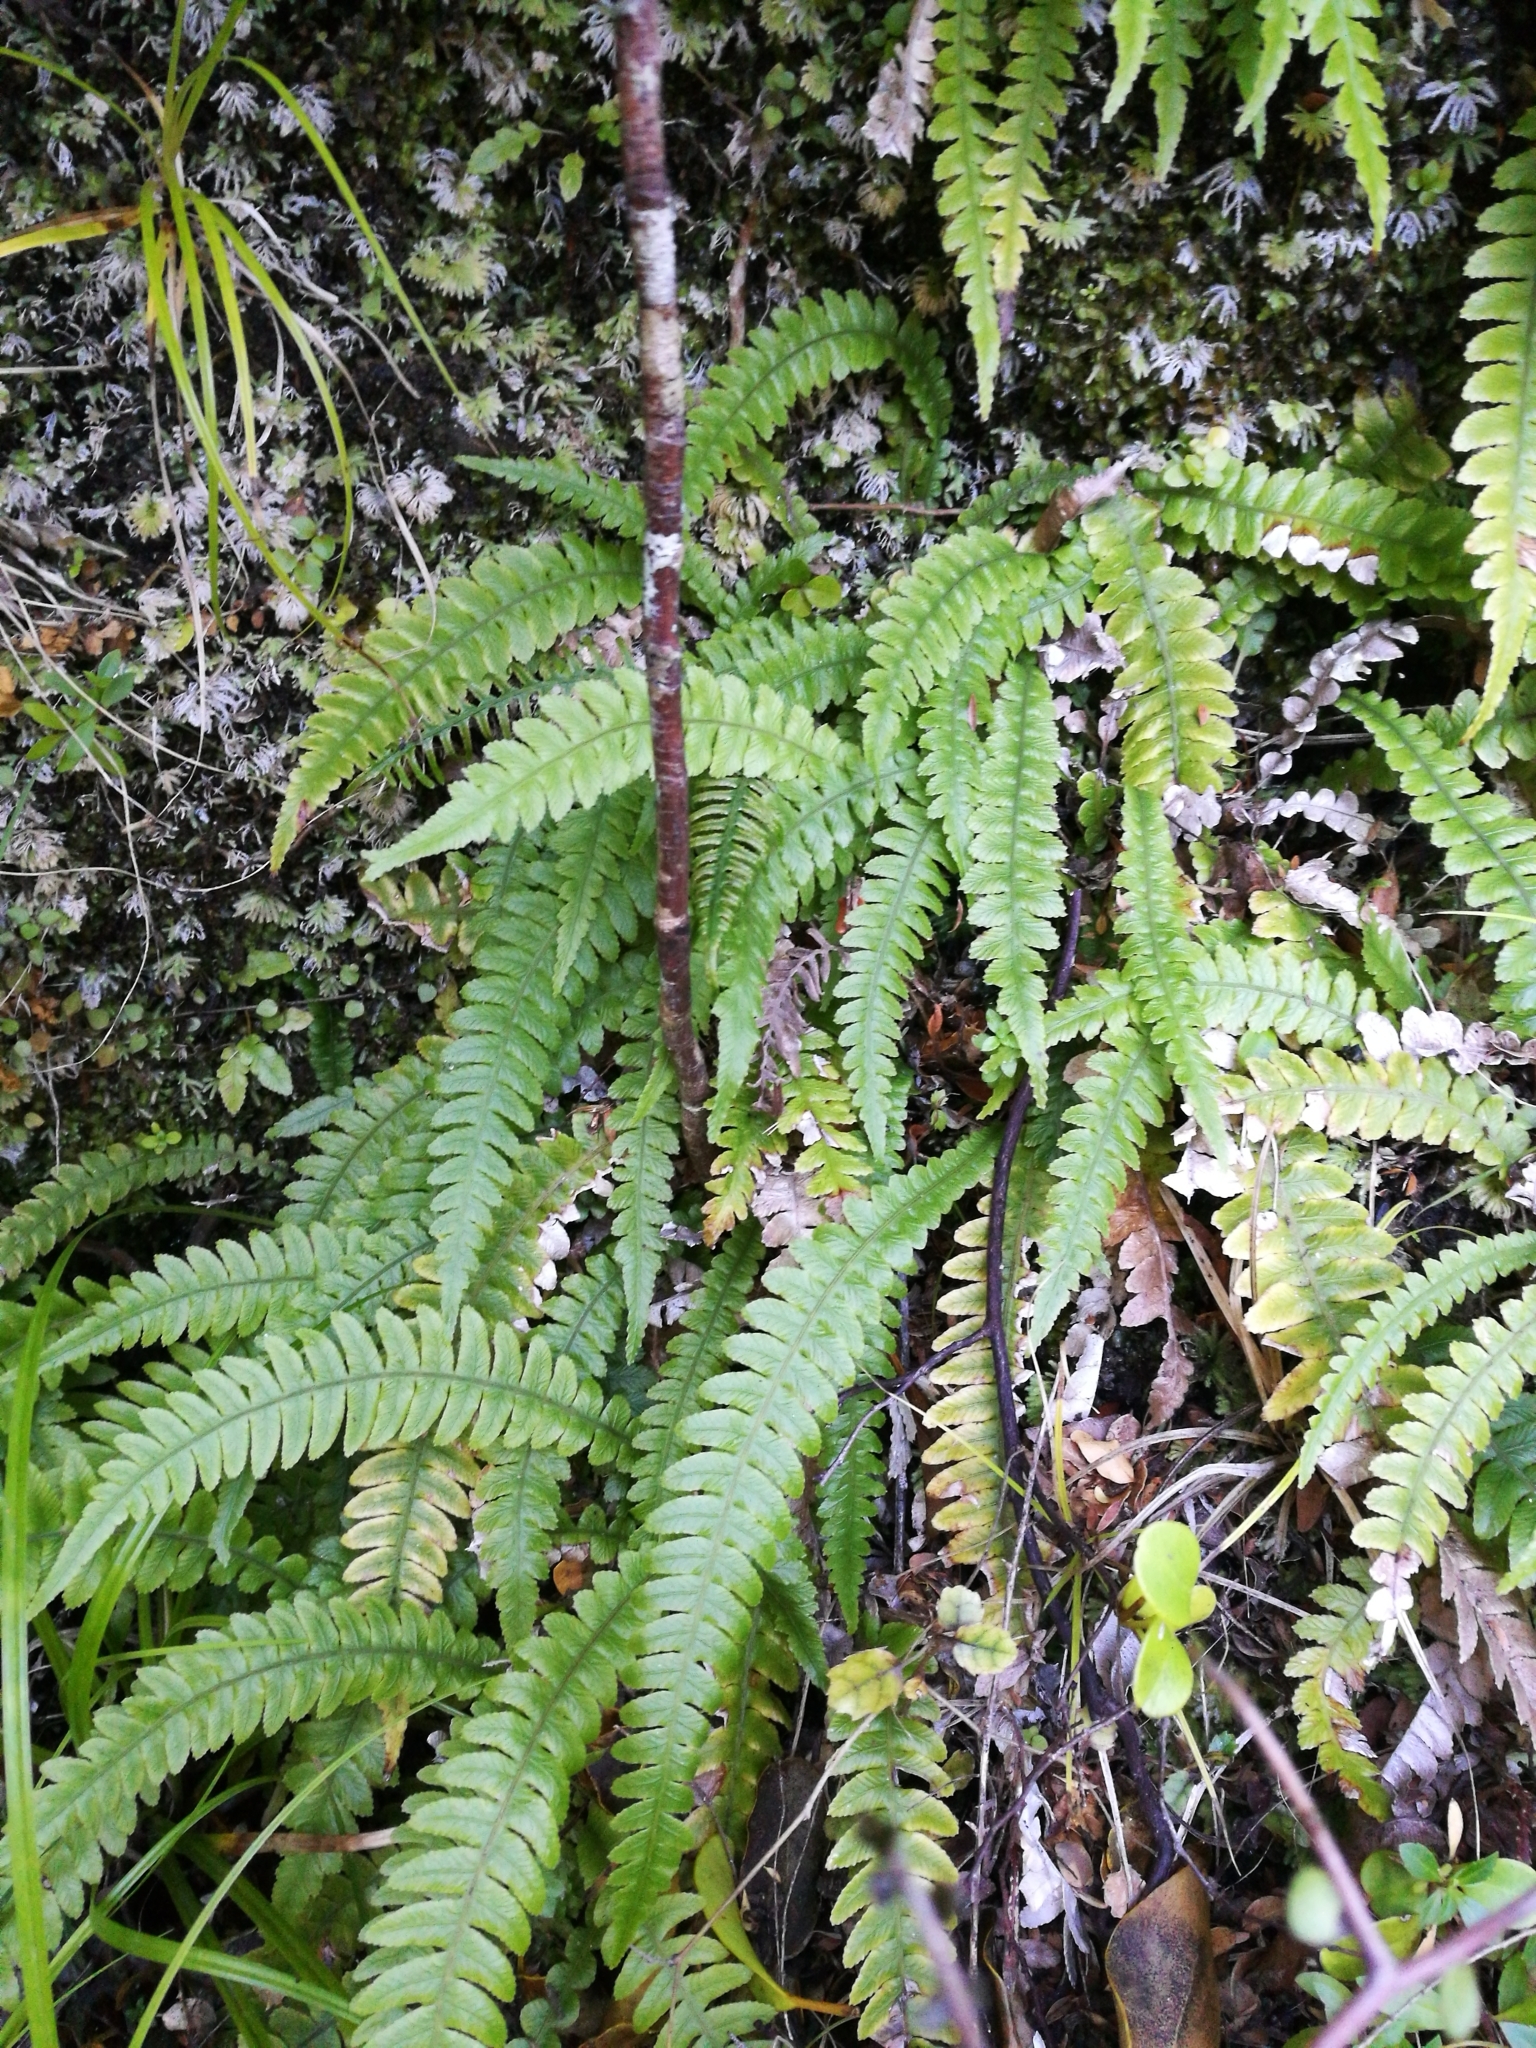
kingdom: Plantae
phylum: Tracheophyta
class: Polypodiopsida
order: Polypodiales
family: Blechnaceae
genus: Austroblechnum
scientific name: Austroblechnum lanceolatum
